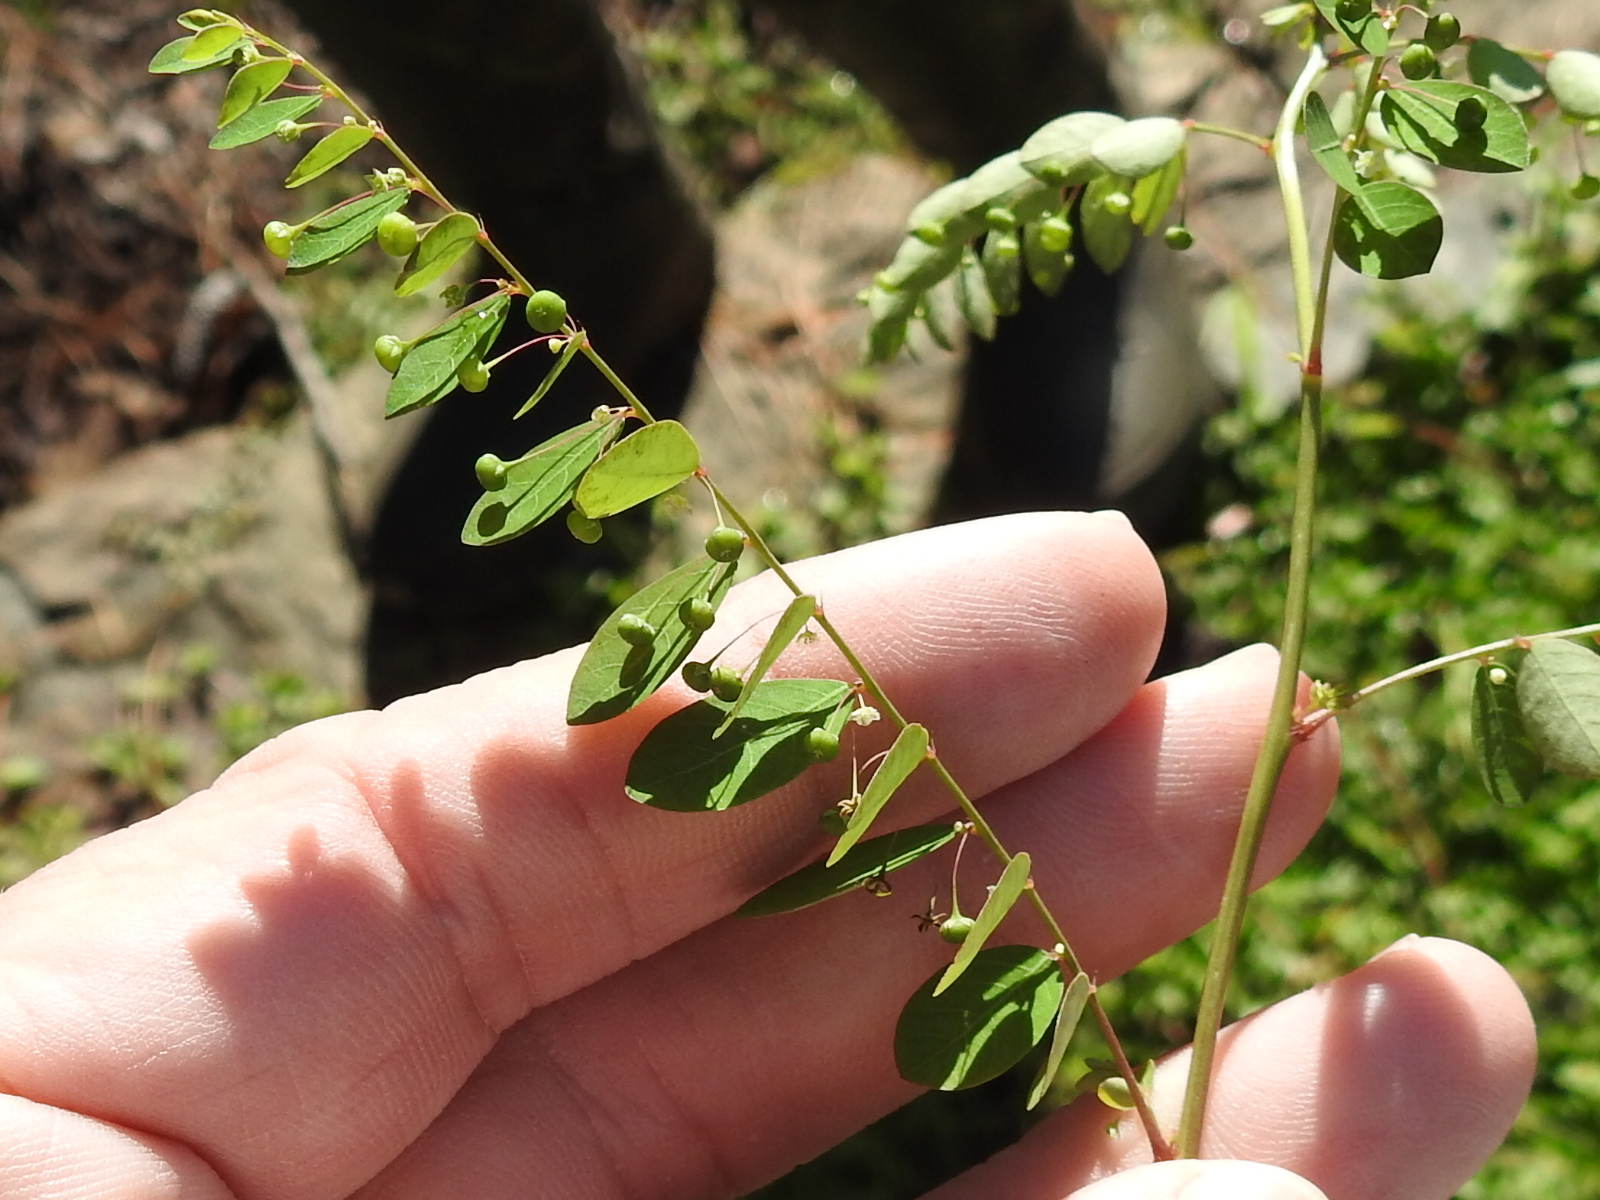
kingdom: Plantae
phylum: Tracheophyta
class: Magnoliopsida
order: Malpighiales
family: Phyllanthaceae
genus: Phyllanthus
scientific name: Phyllanthus tenellus
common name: Mascarene island leaf-flower
